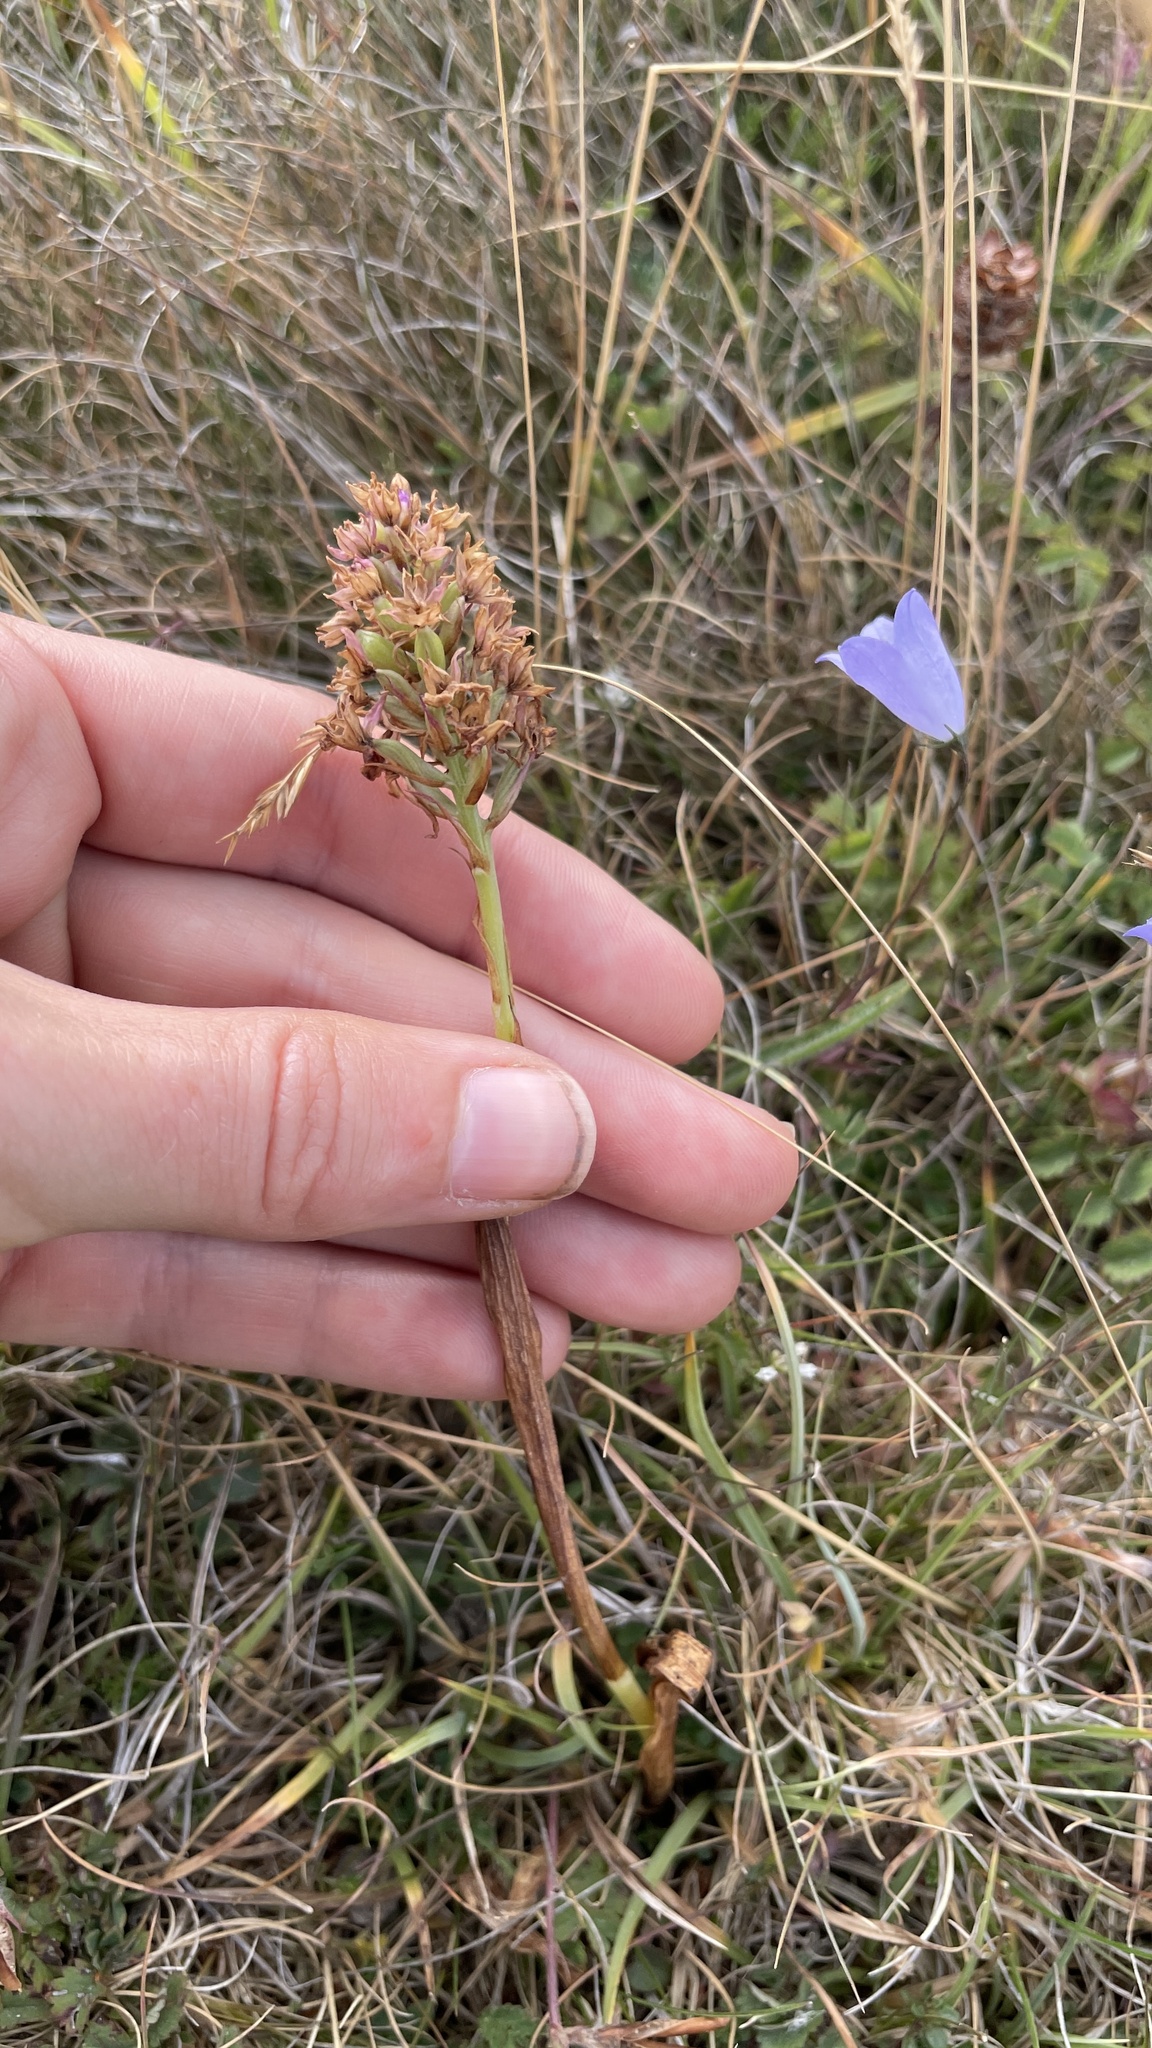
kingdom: Plantae
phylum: Tracheophyta
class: Liliopsida
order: Asparagales
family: Orchidaceae
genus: Anacamptis
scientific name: Anacamptis pyramidalis
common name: Pyramidal orchid
